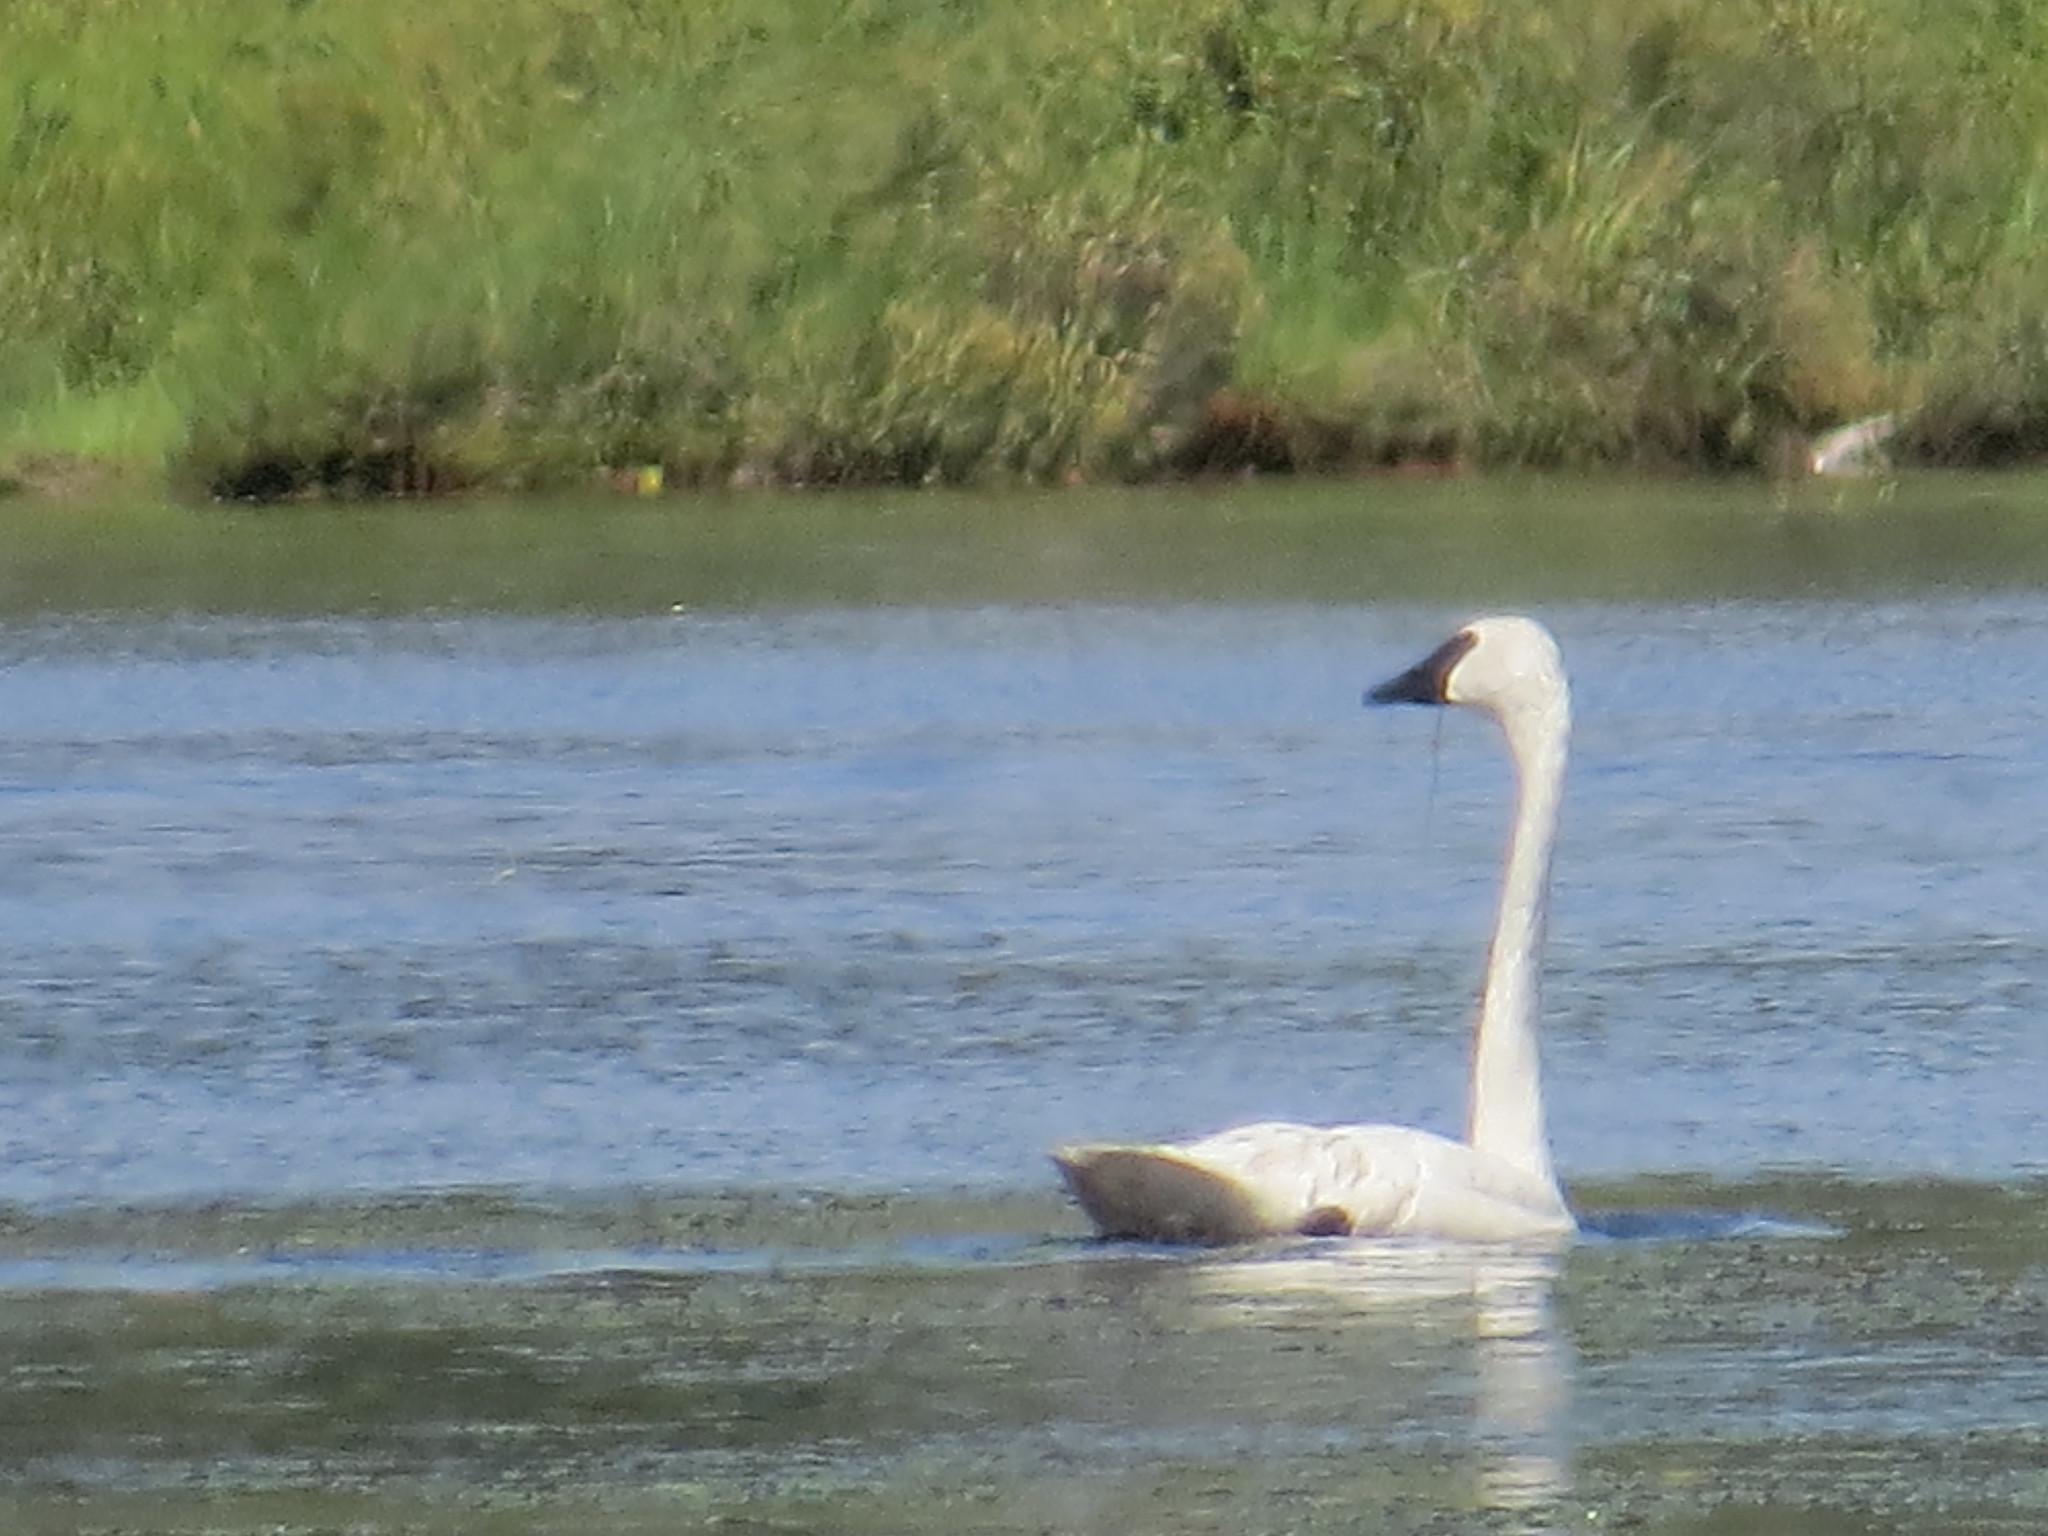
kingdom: Animalia
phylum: Chordata
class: Aves
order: Anseriformes
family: Anatidae
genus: Cygnus
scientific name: Cygnus buccinator
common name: Trumpeter swan
